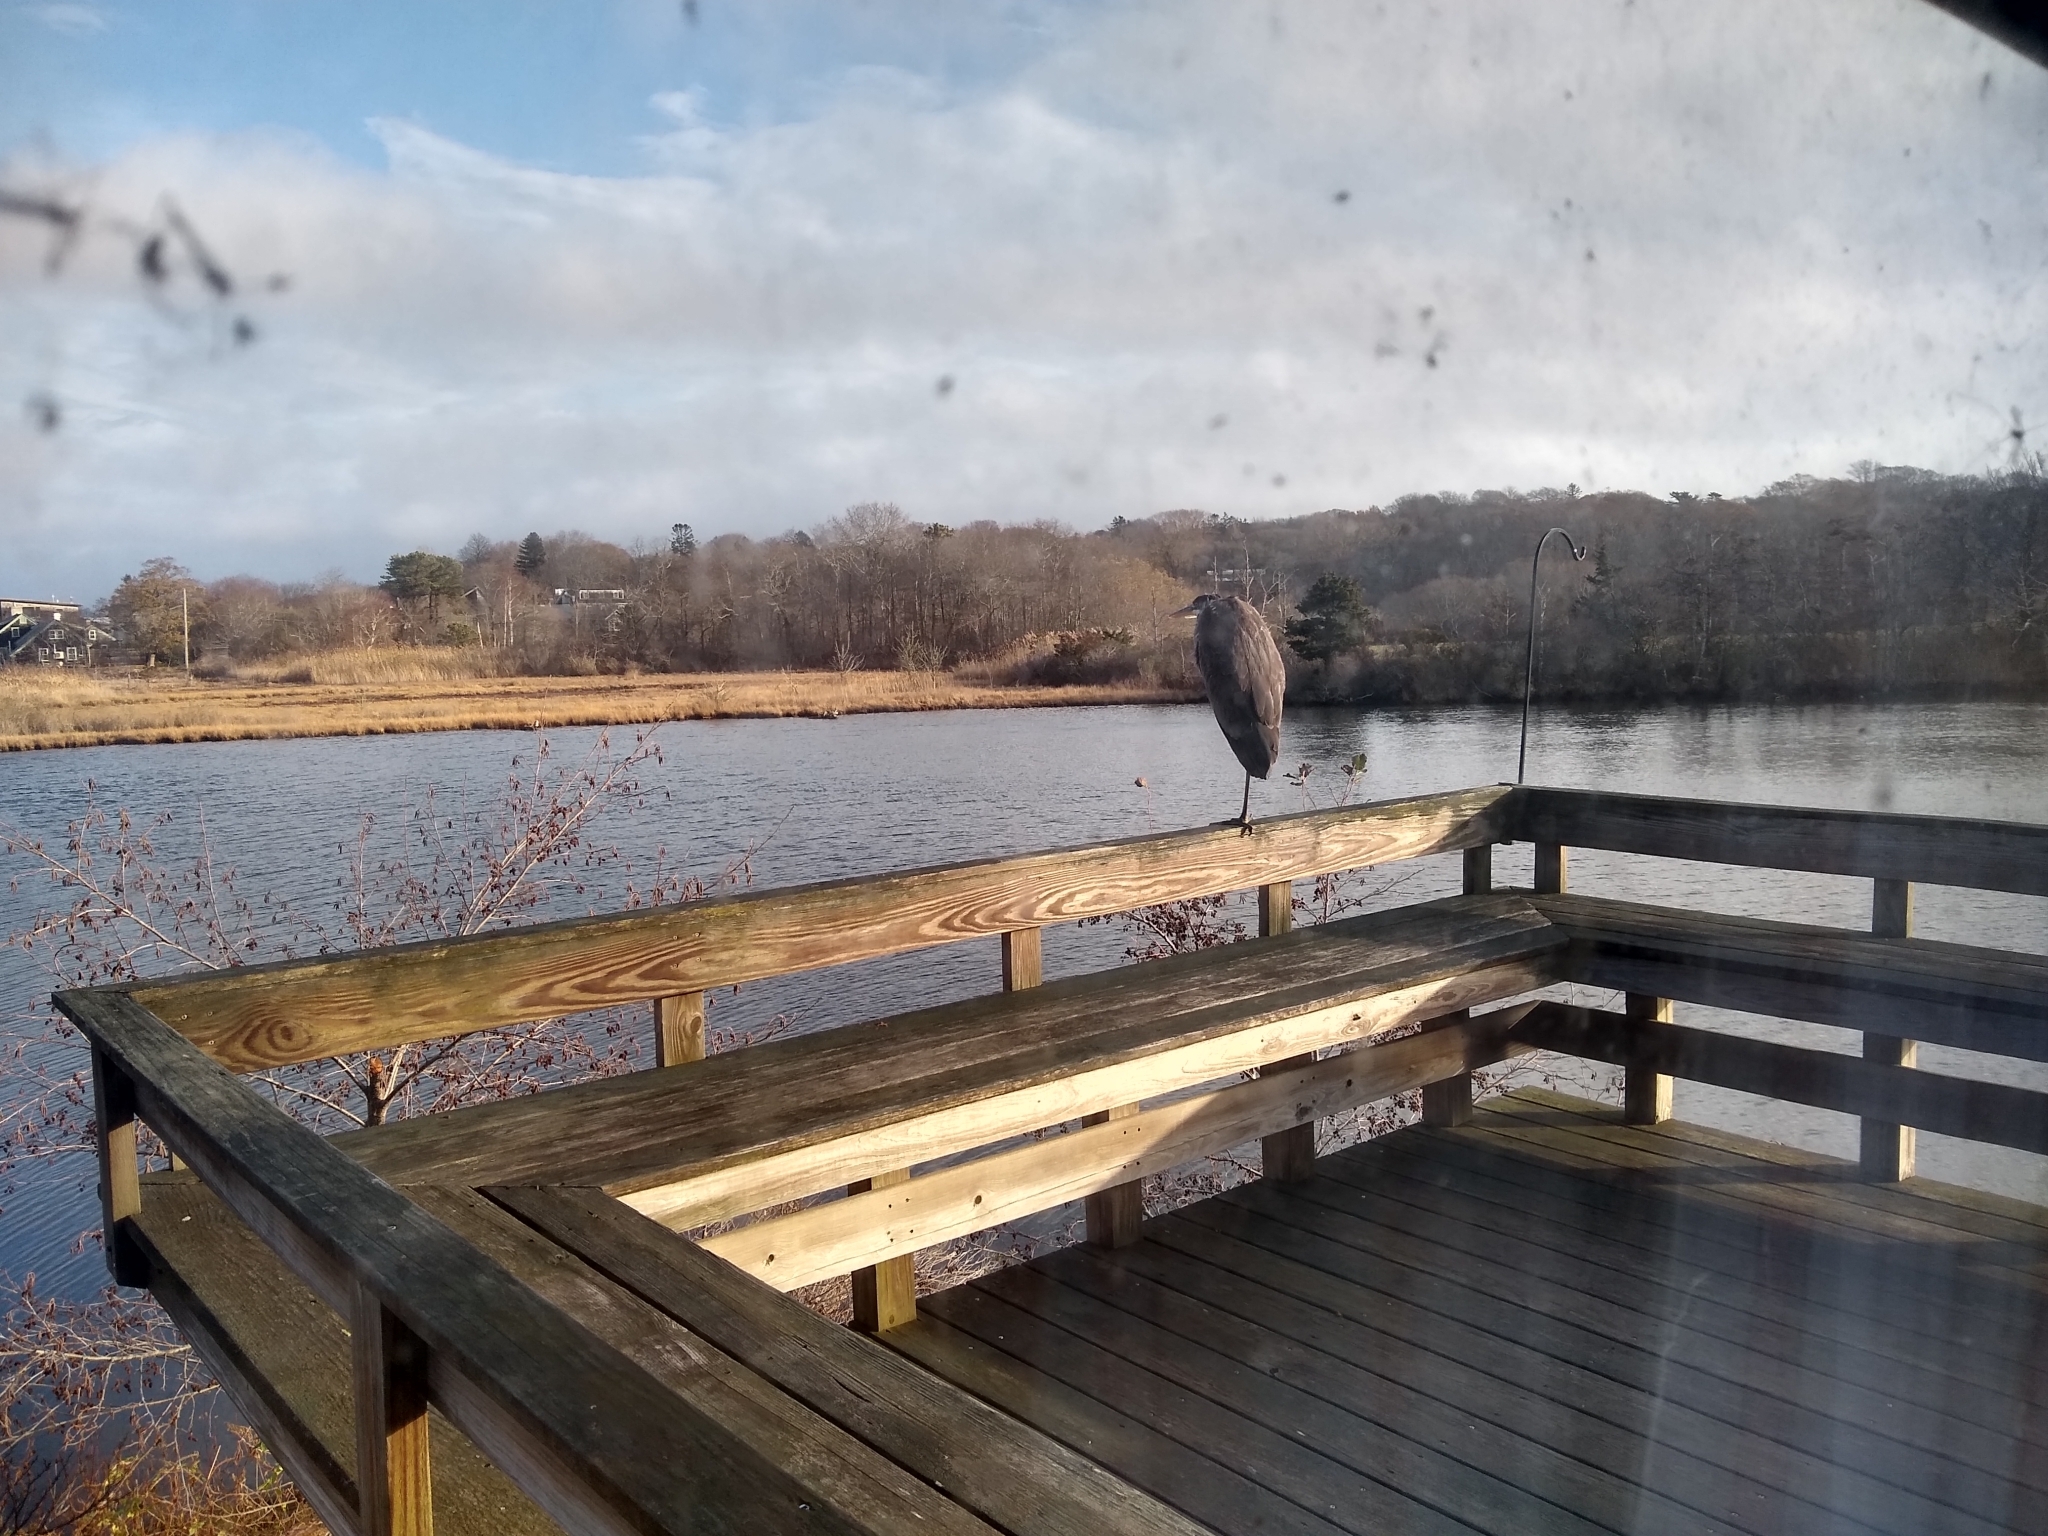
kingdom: Animalia
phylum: Chordata
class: Aves
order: Pelecaniformes
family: Ardeidae
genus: Ardea
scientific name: Ardea herodias
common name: Great blue heron
